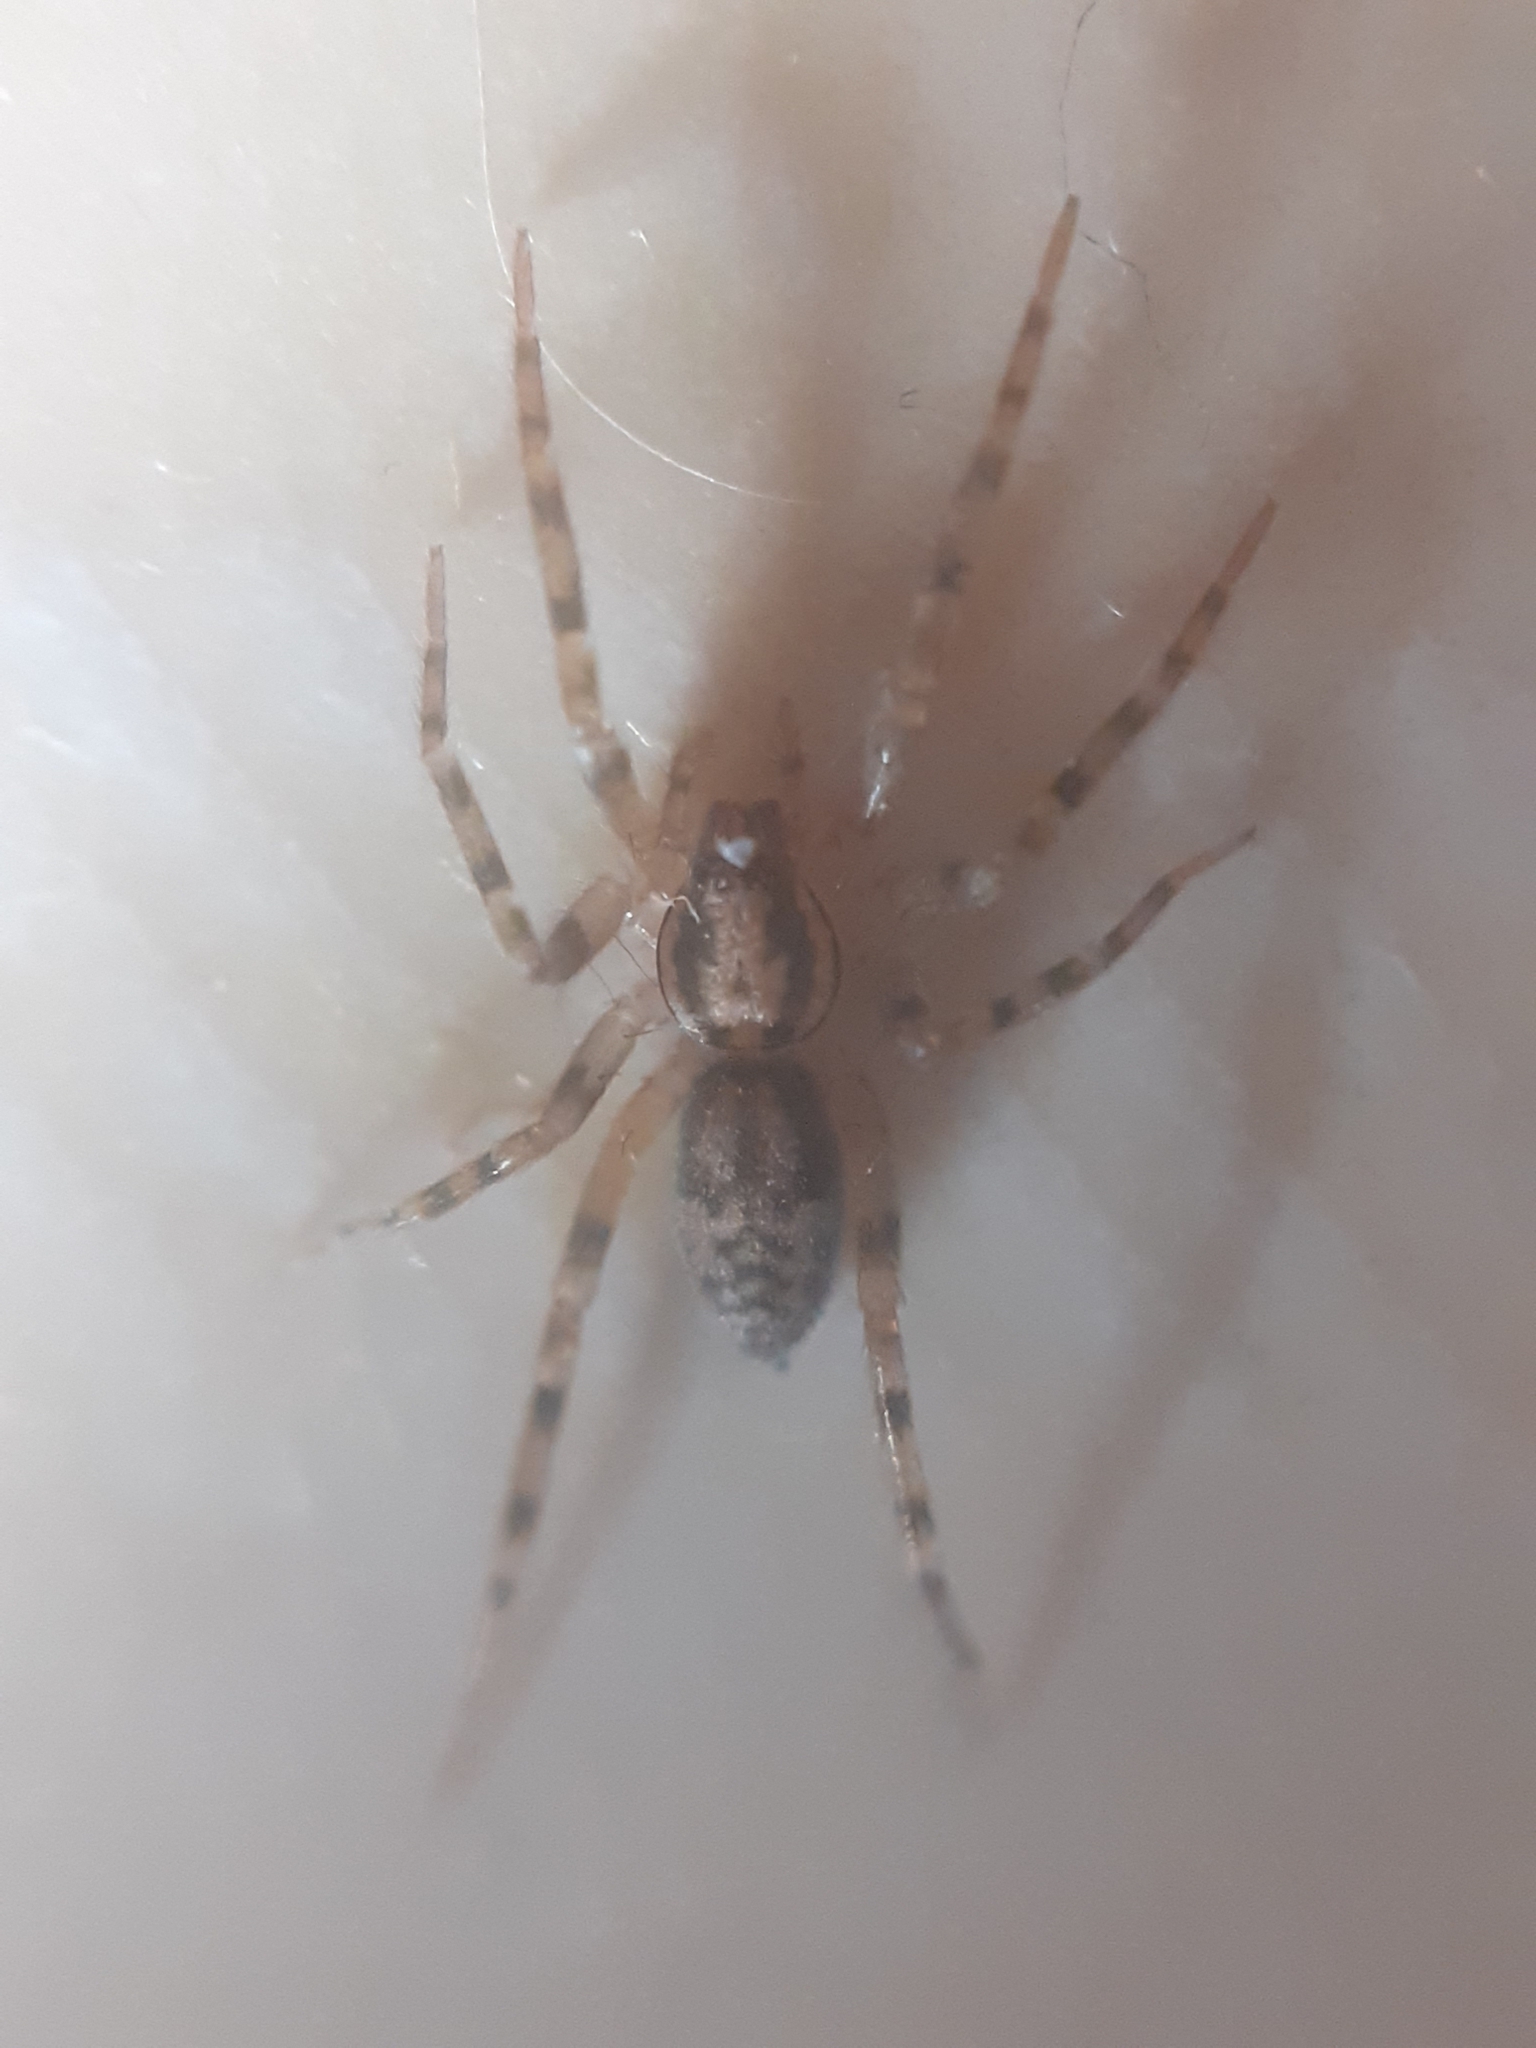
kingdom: Animalia
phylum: Arthropoda
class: Arachnida
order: Araneae
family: Liocranidae
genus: Liocranum
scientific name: Liocranum rupicola
